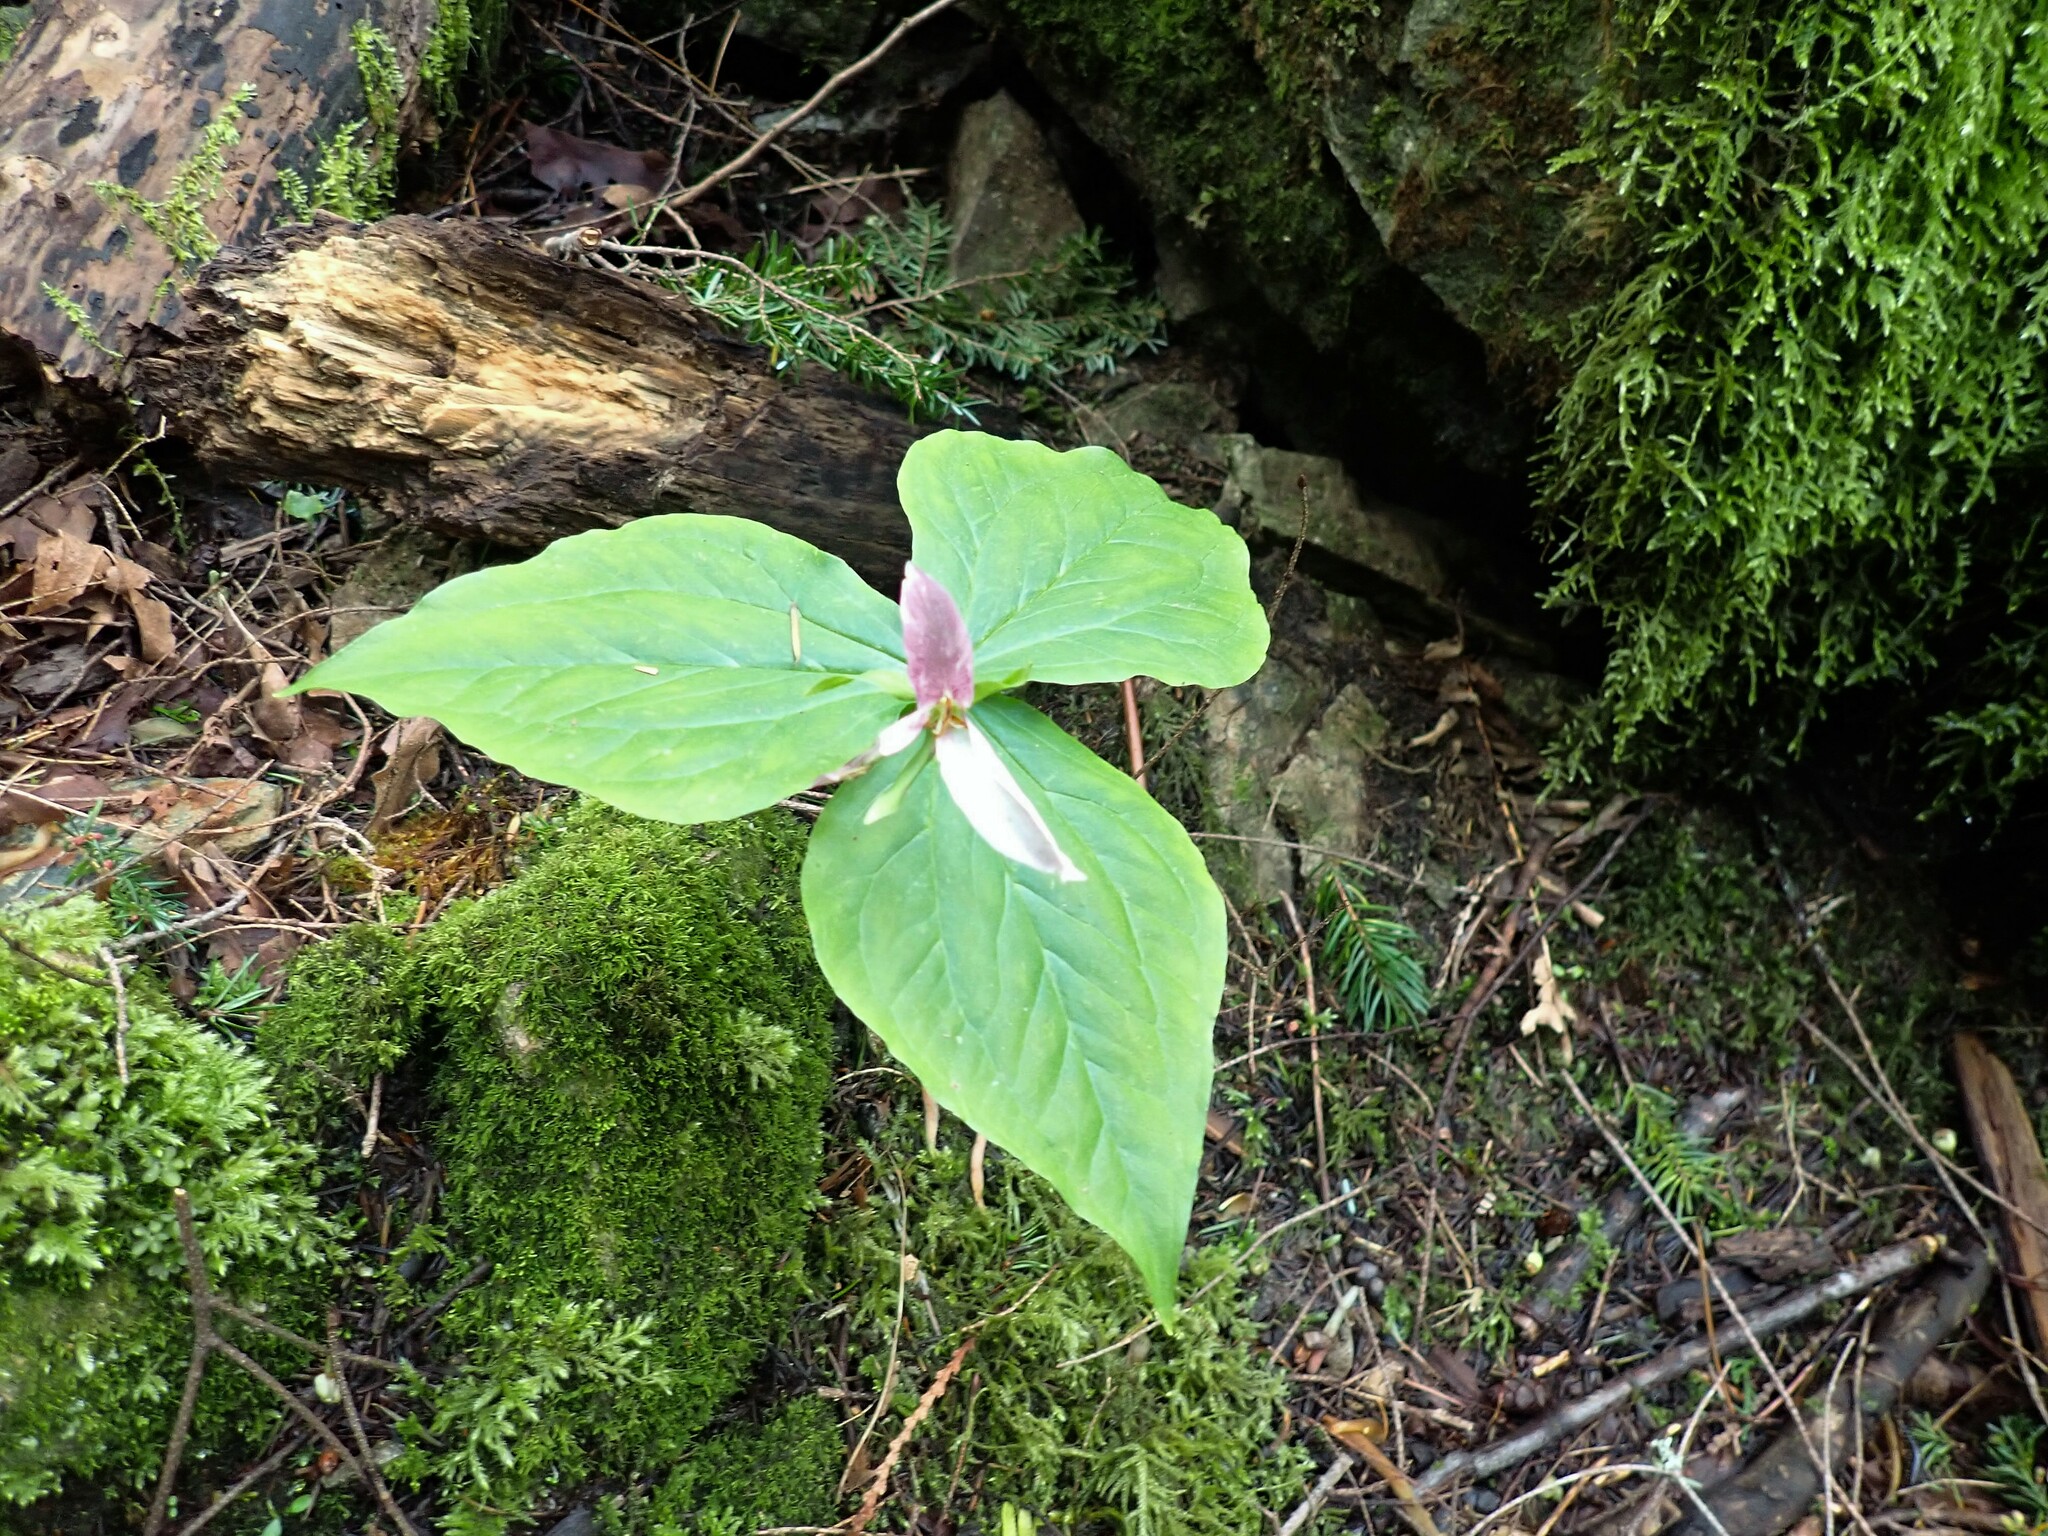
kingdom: Plantae
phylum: Tracheophyta
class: Liliopsida
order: Liliales
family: Melanthiaceae
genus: Trillium
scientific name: Trillium ovatum
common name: Pacific trillium
